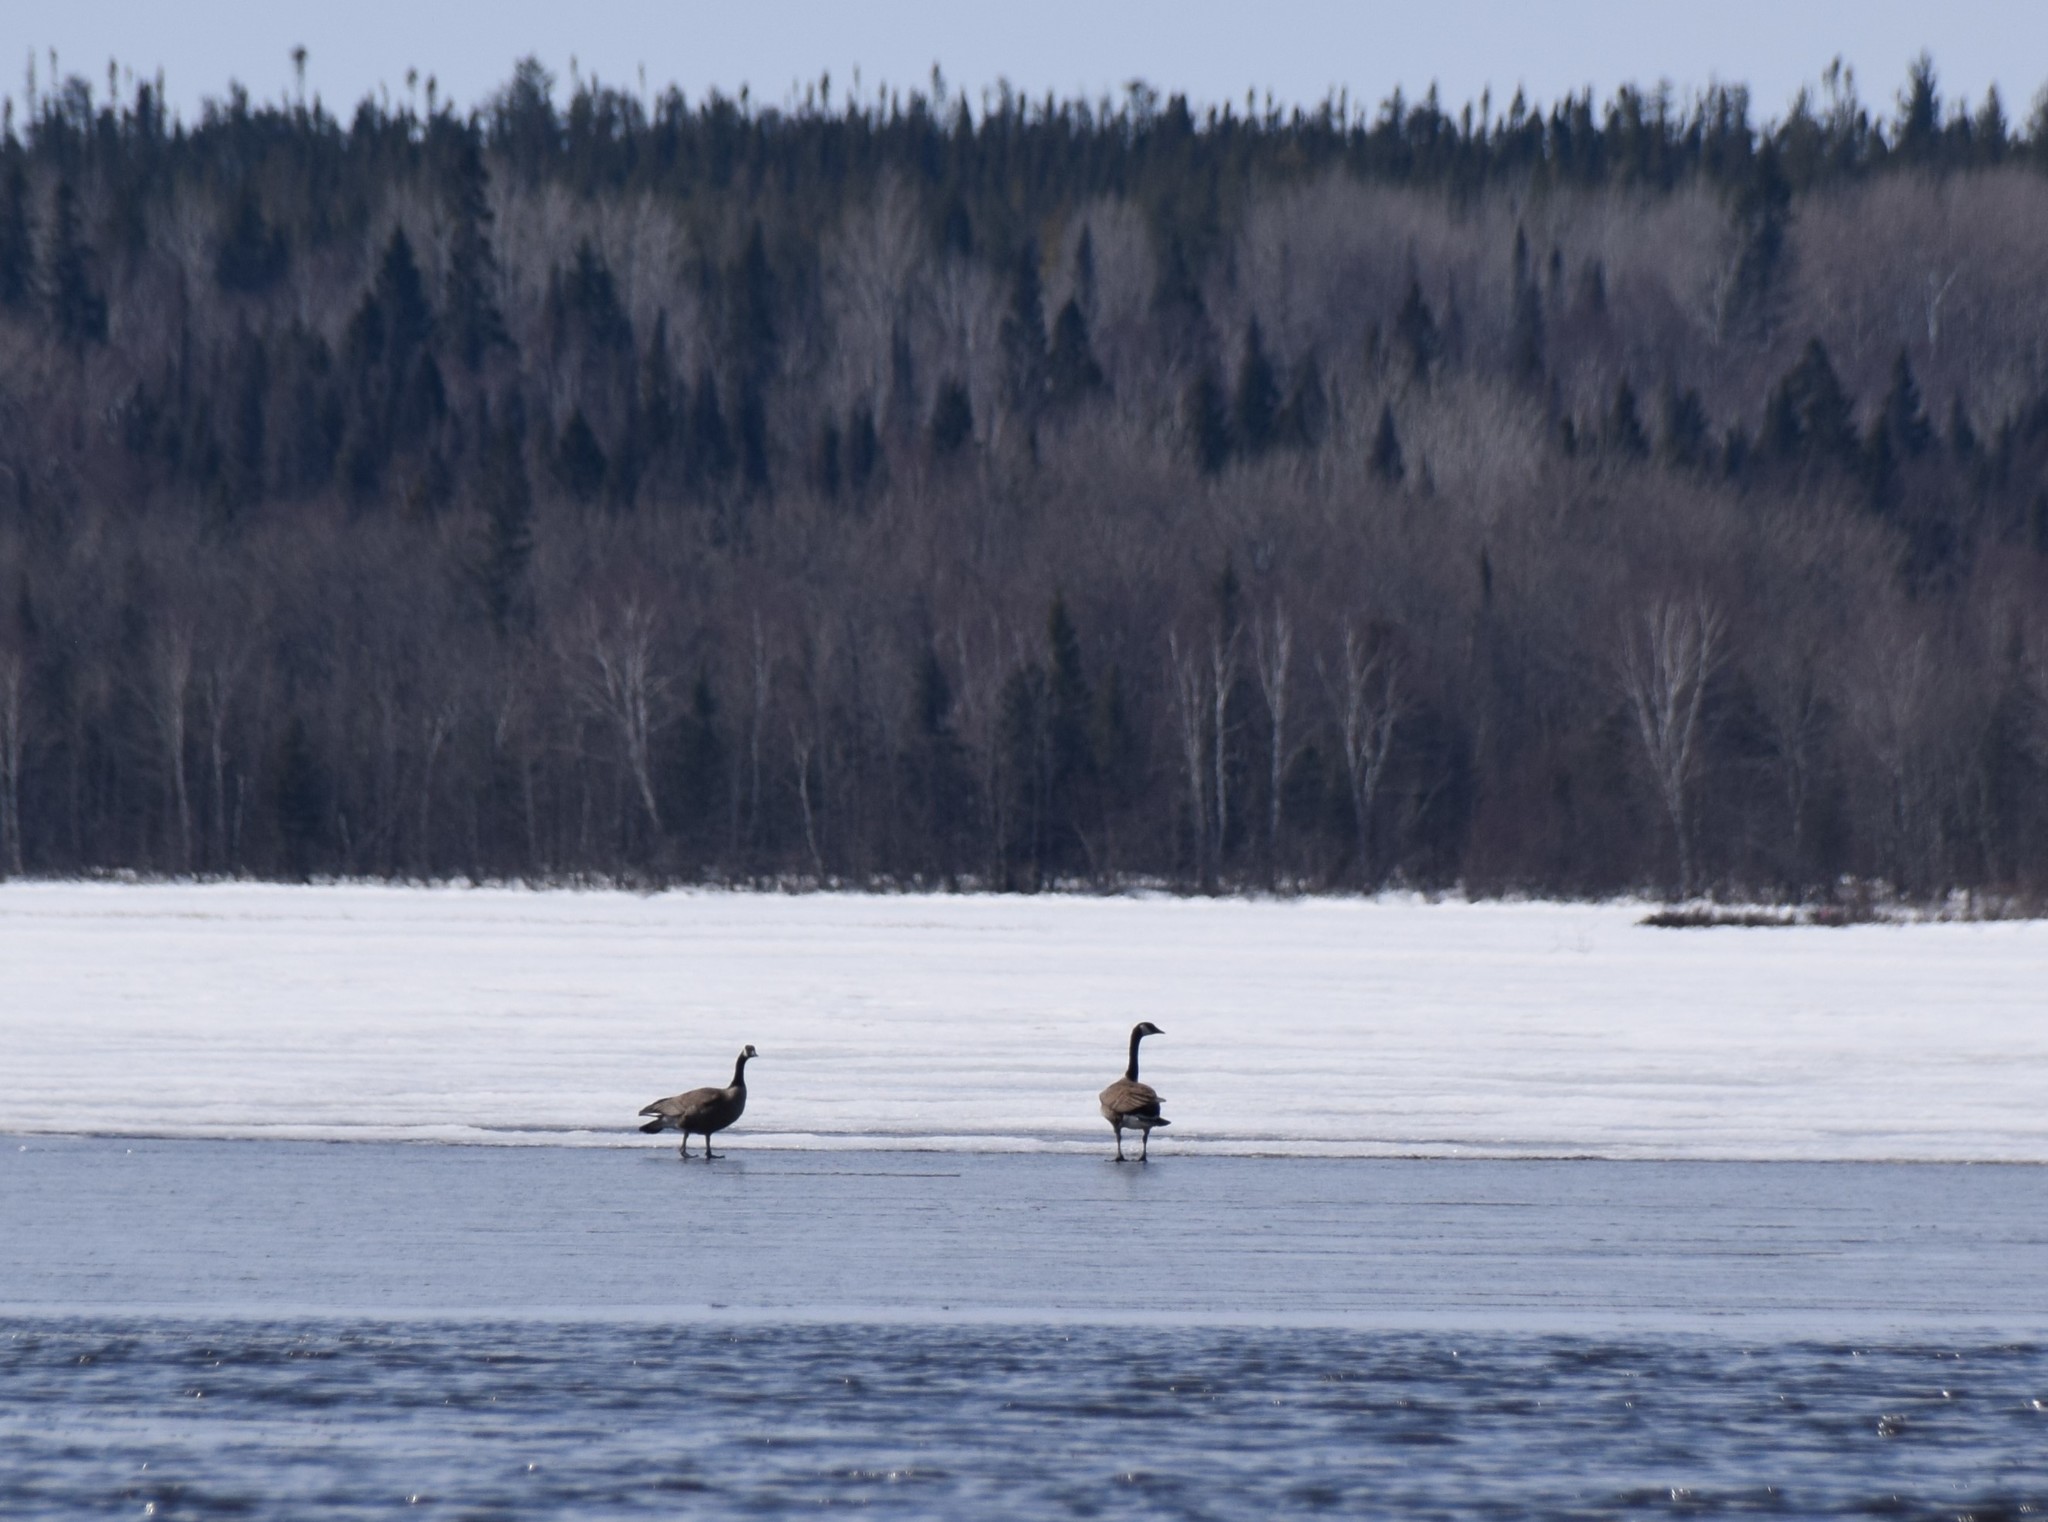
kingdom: Animalia
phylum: Chordata
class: Aves
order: Anseriformes
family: Anatidae
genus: Branta
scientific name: Branta canadensis
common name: Canada goose
